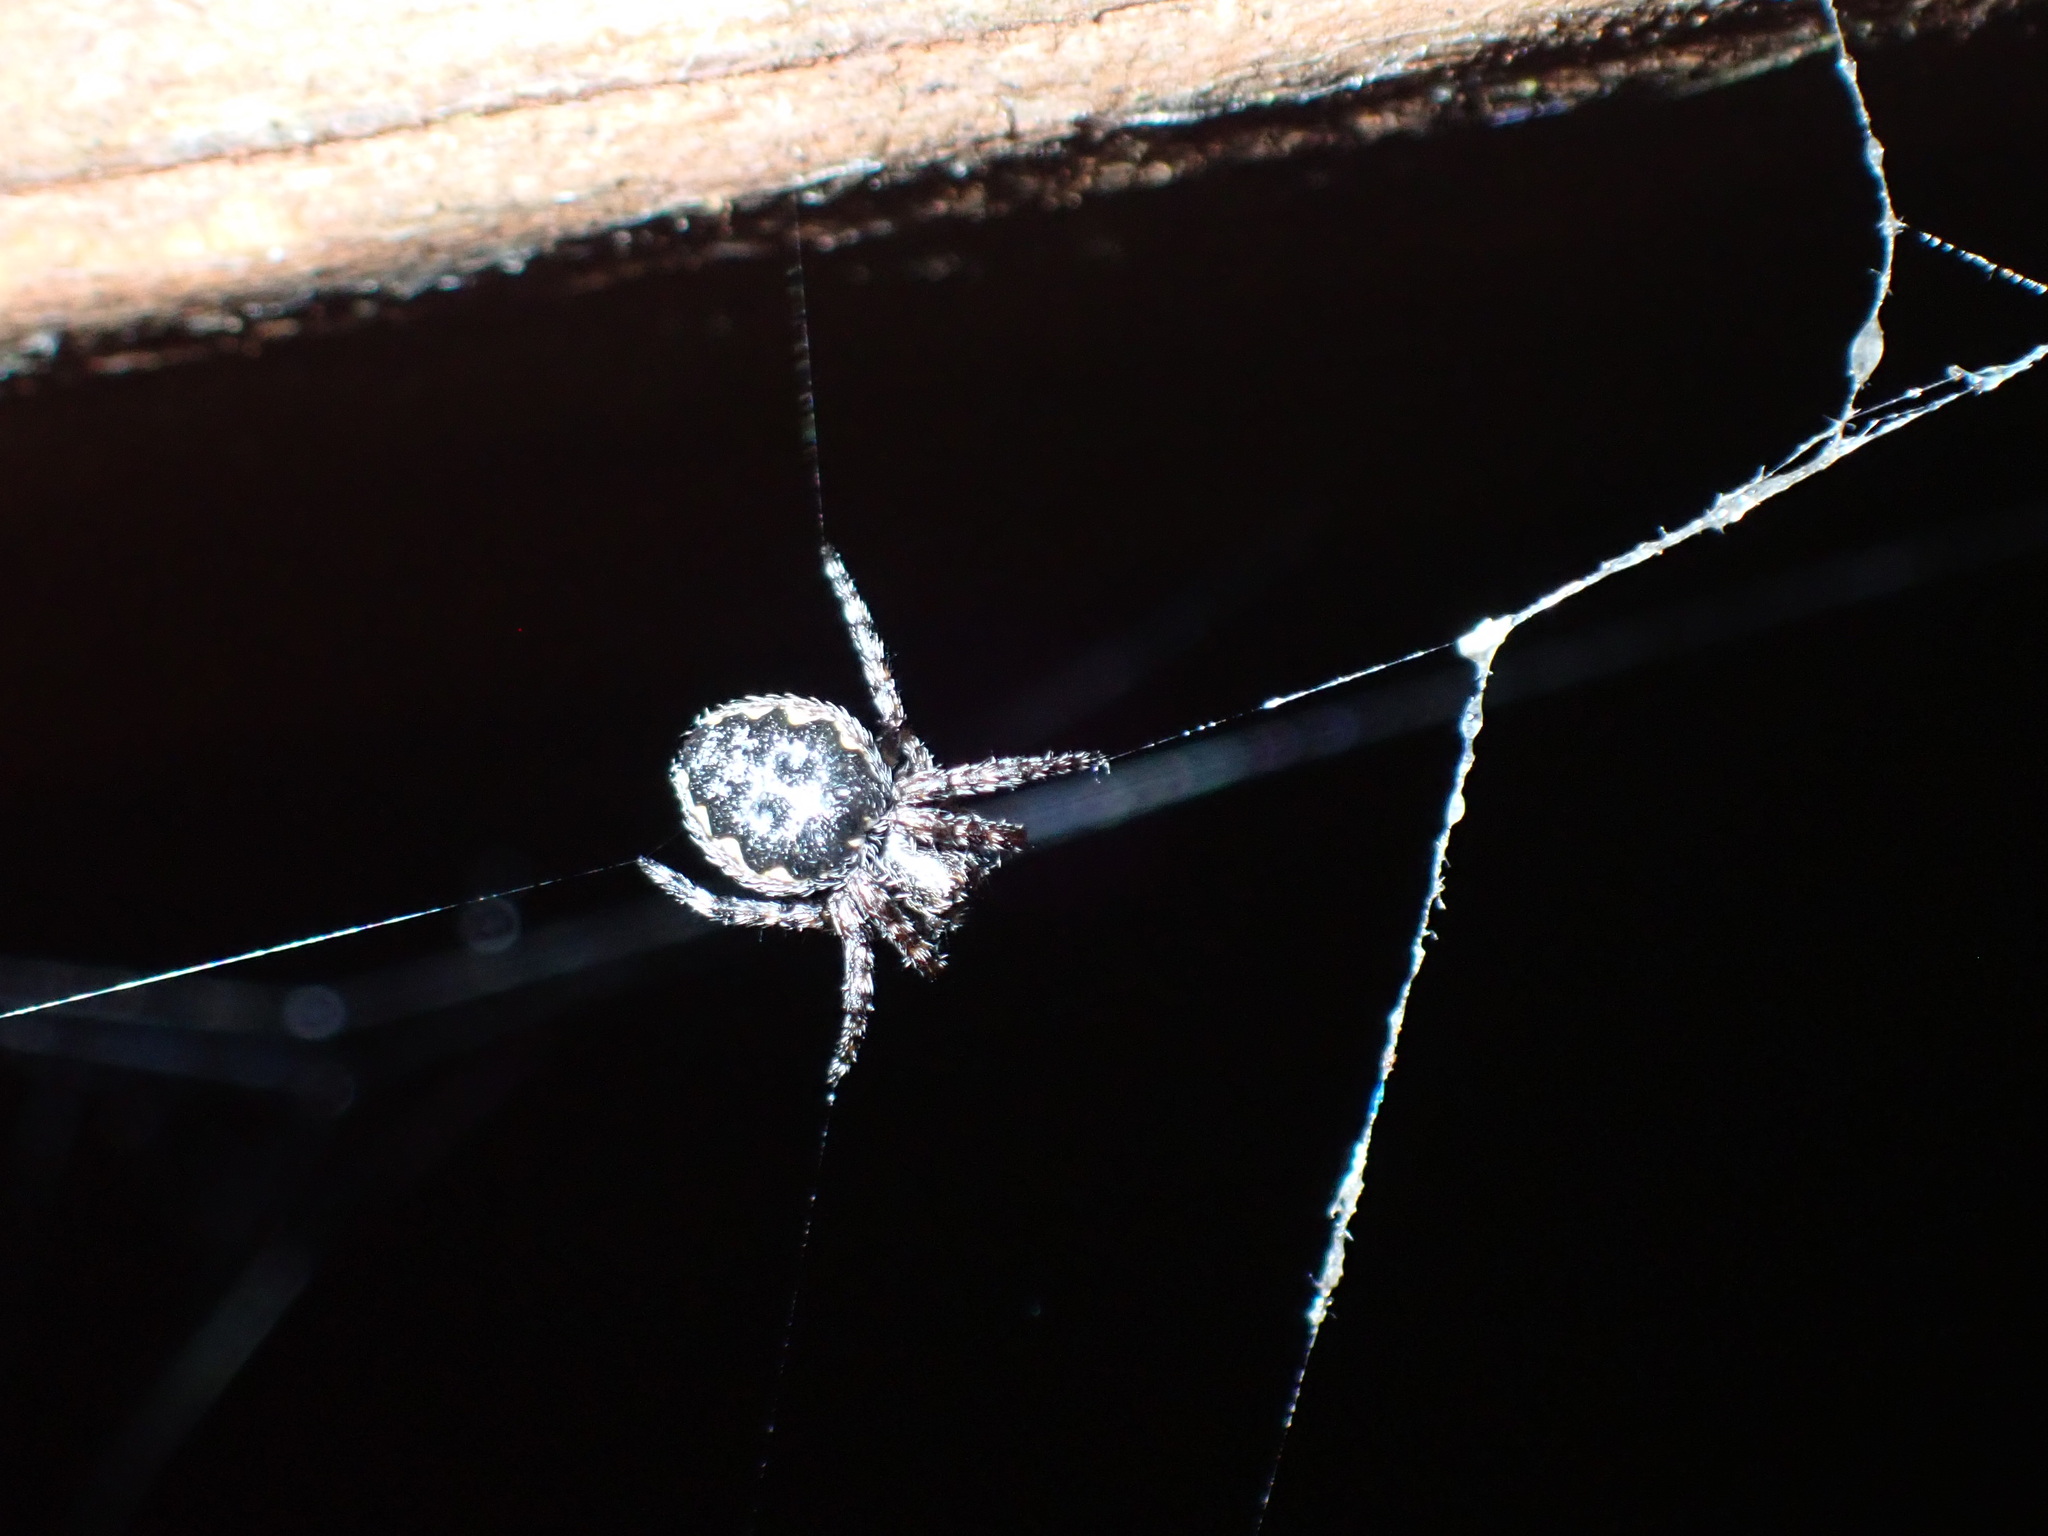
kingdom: Animalia
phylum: Arthropoda
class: Arachnida
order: Araneae
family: Araneidae
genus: Nuctenea
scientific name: Nuctenea umbratica
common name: Toad spider
